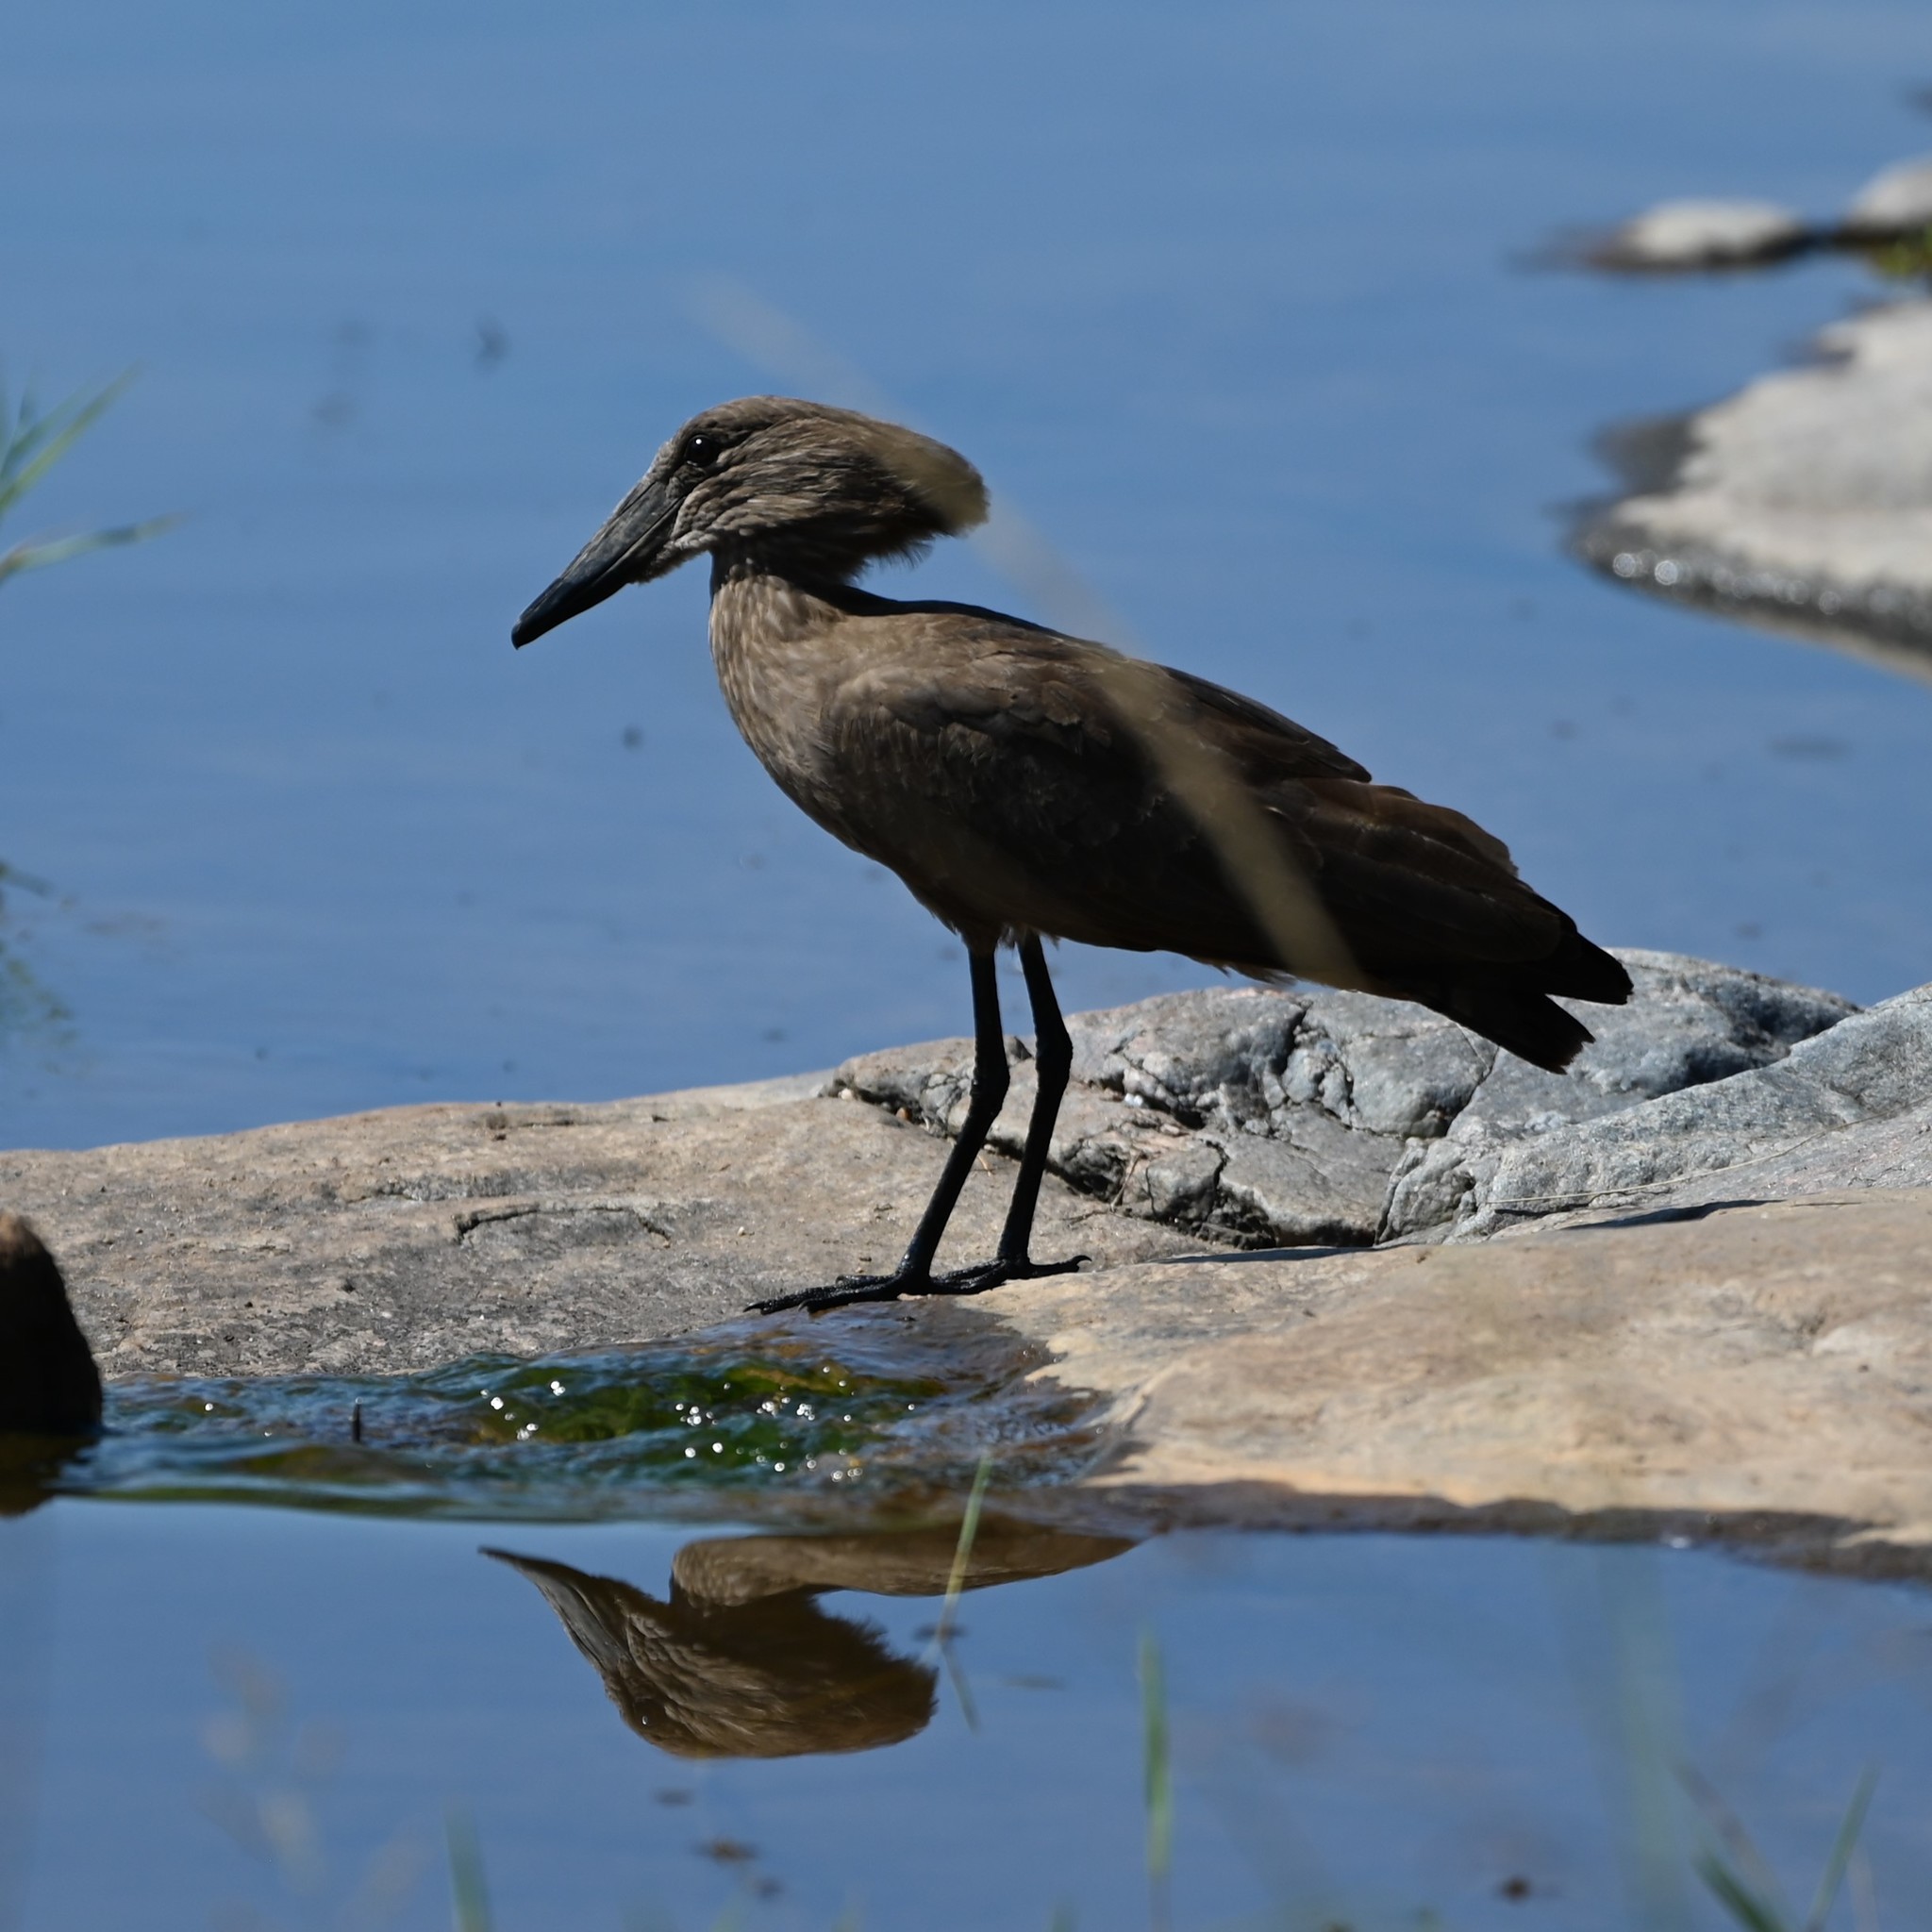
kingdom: Animalia
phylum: Chordata
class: Aves
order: Pelecaniformes
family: Scopidae
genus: Scopus
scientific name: Scopus umbretta
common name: Hamerkop
